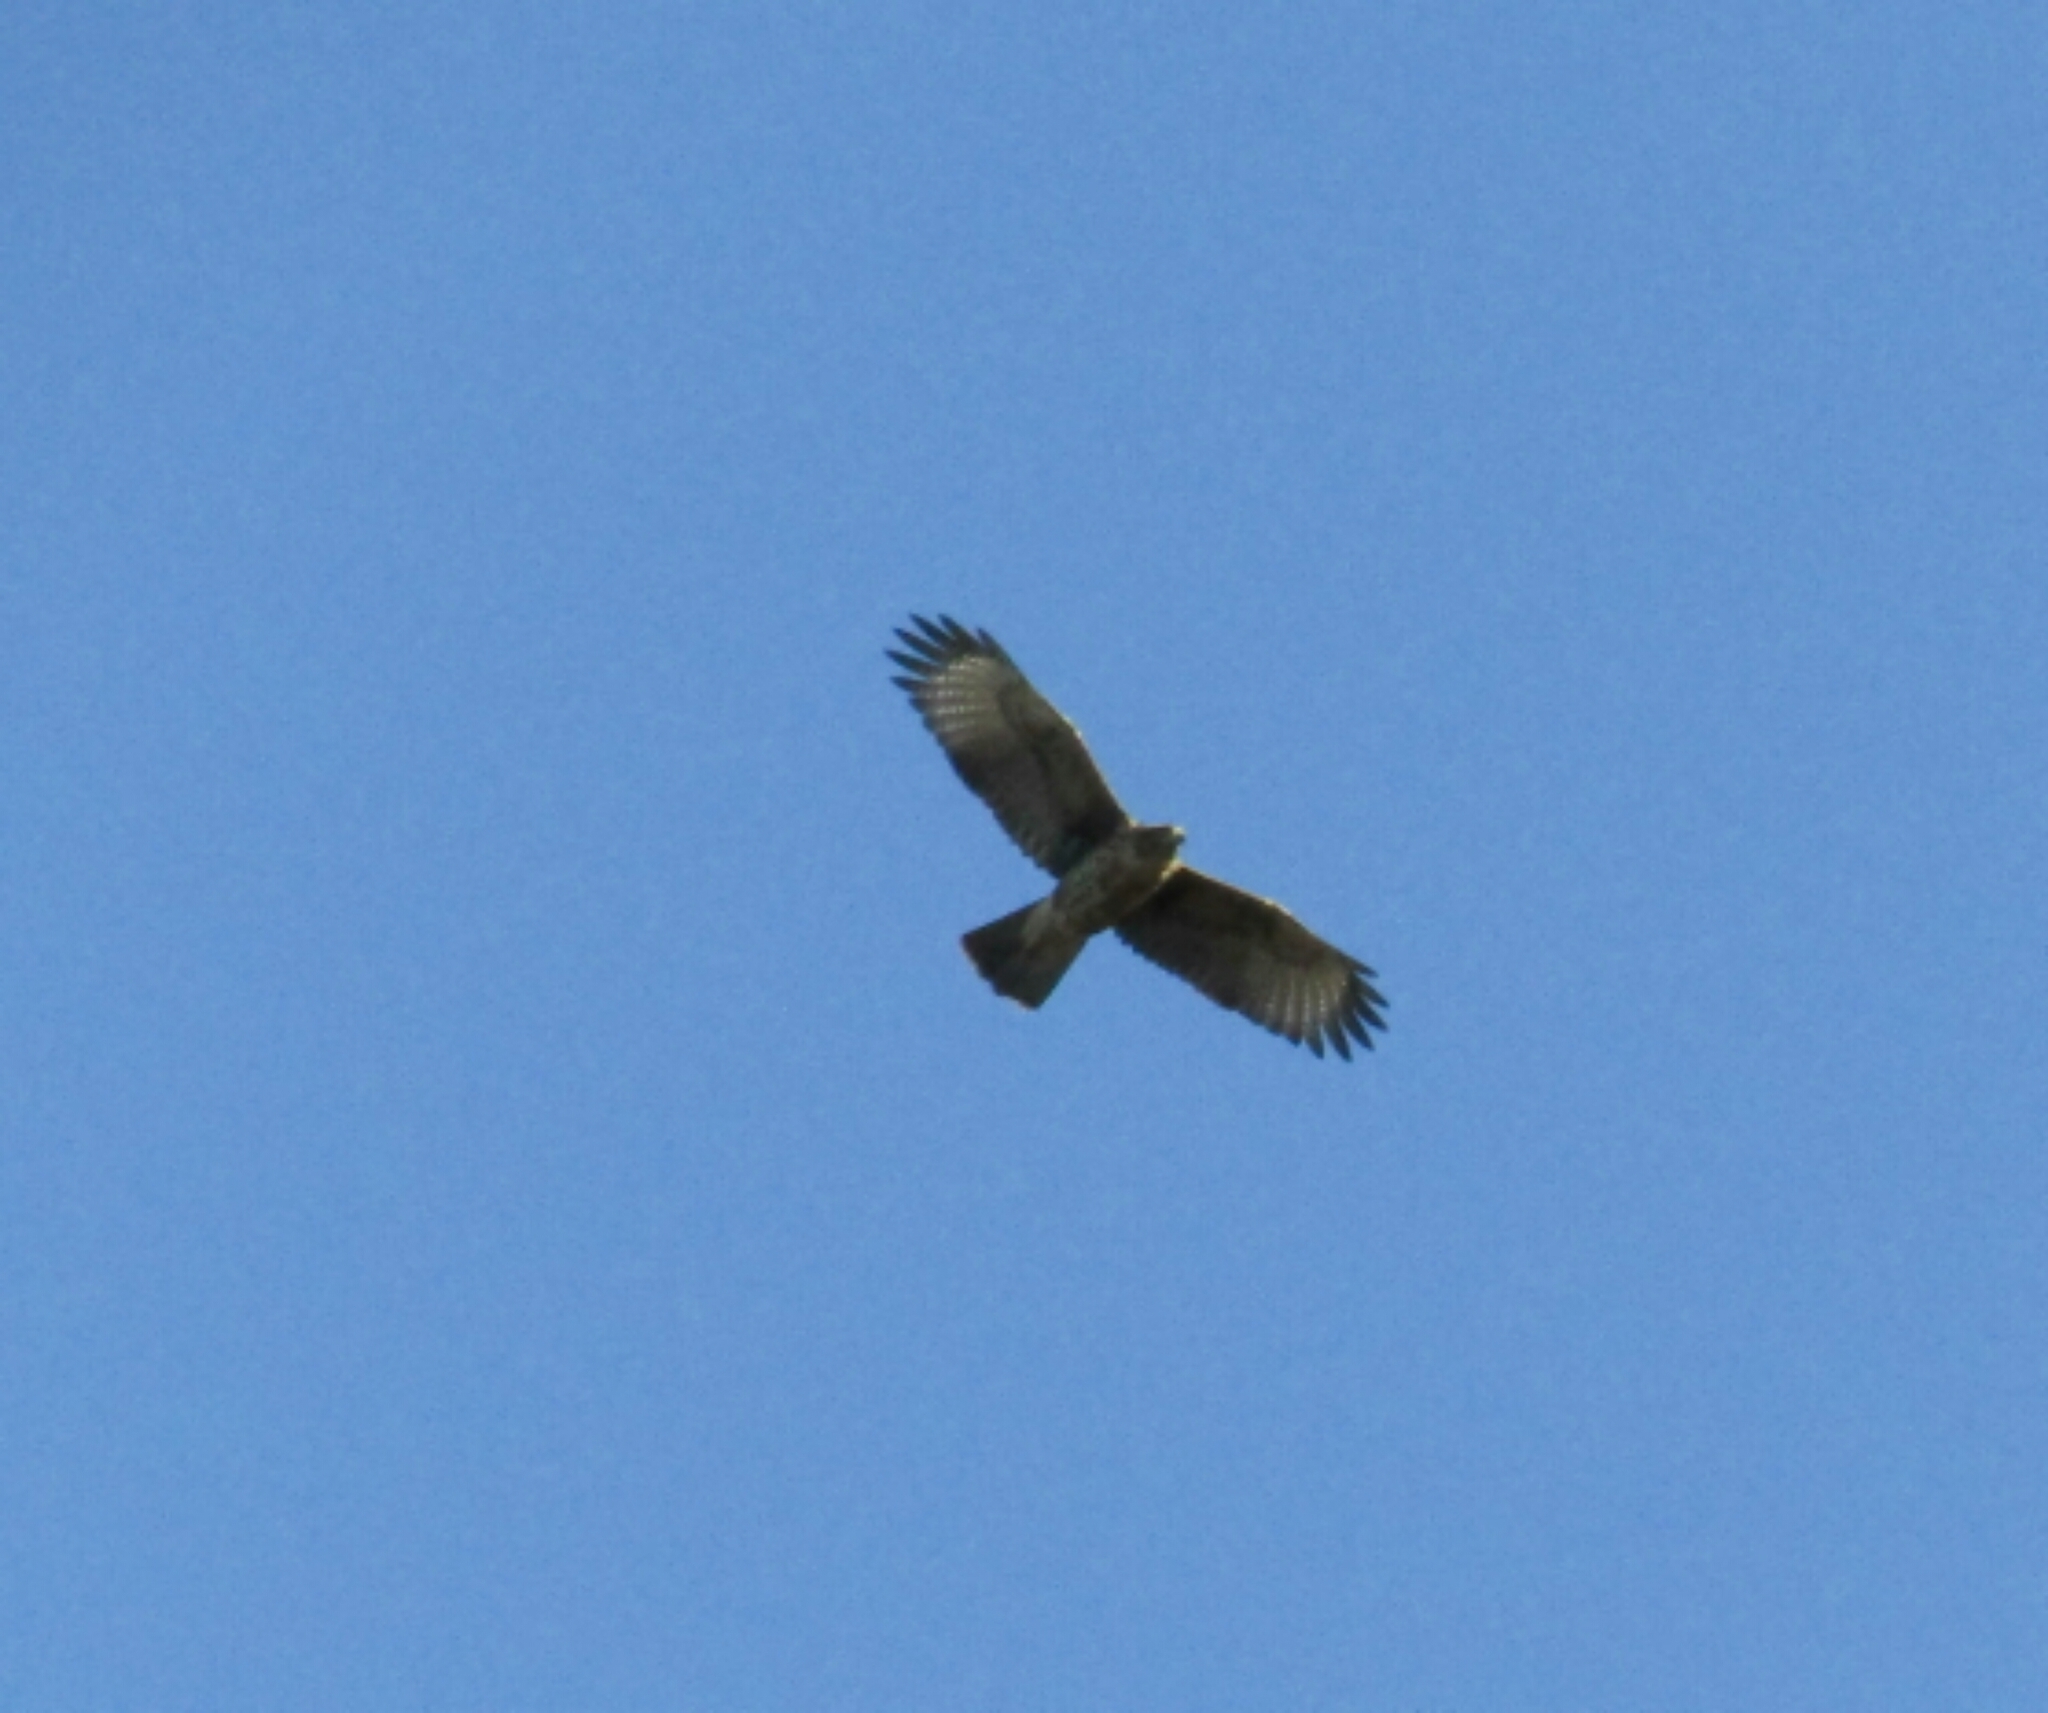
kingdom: Animalia
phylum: Chordata
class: Aves
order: Accipitriformes
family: Accipitridae
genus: Rupornis
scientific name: Rupornis magnirostris
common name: Roadside hawk
